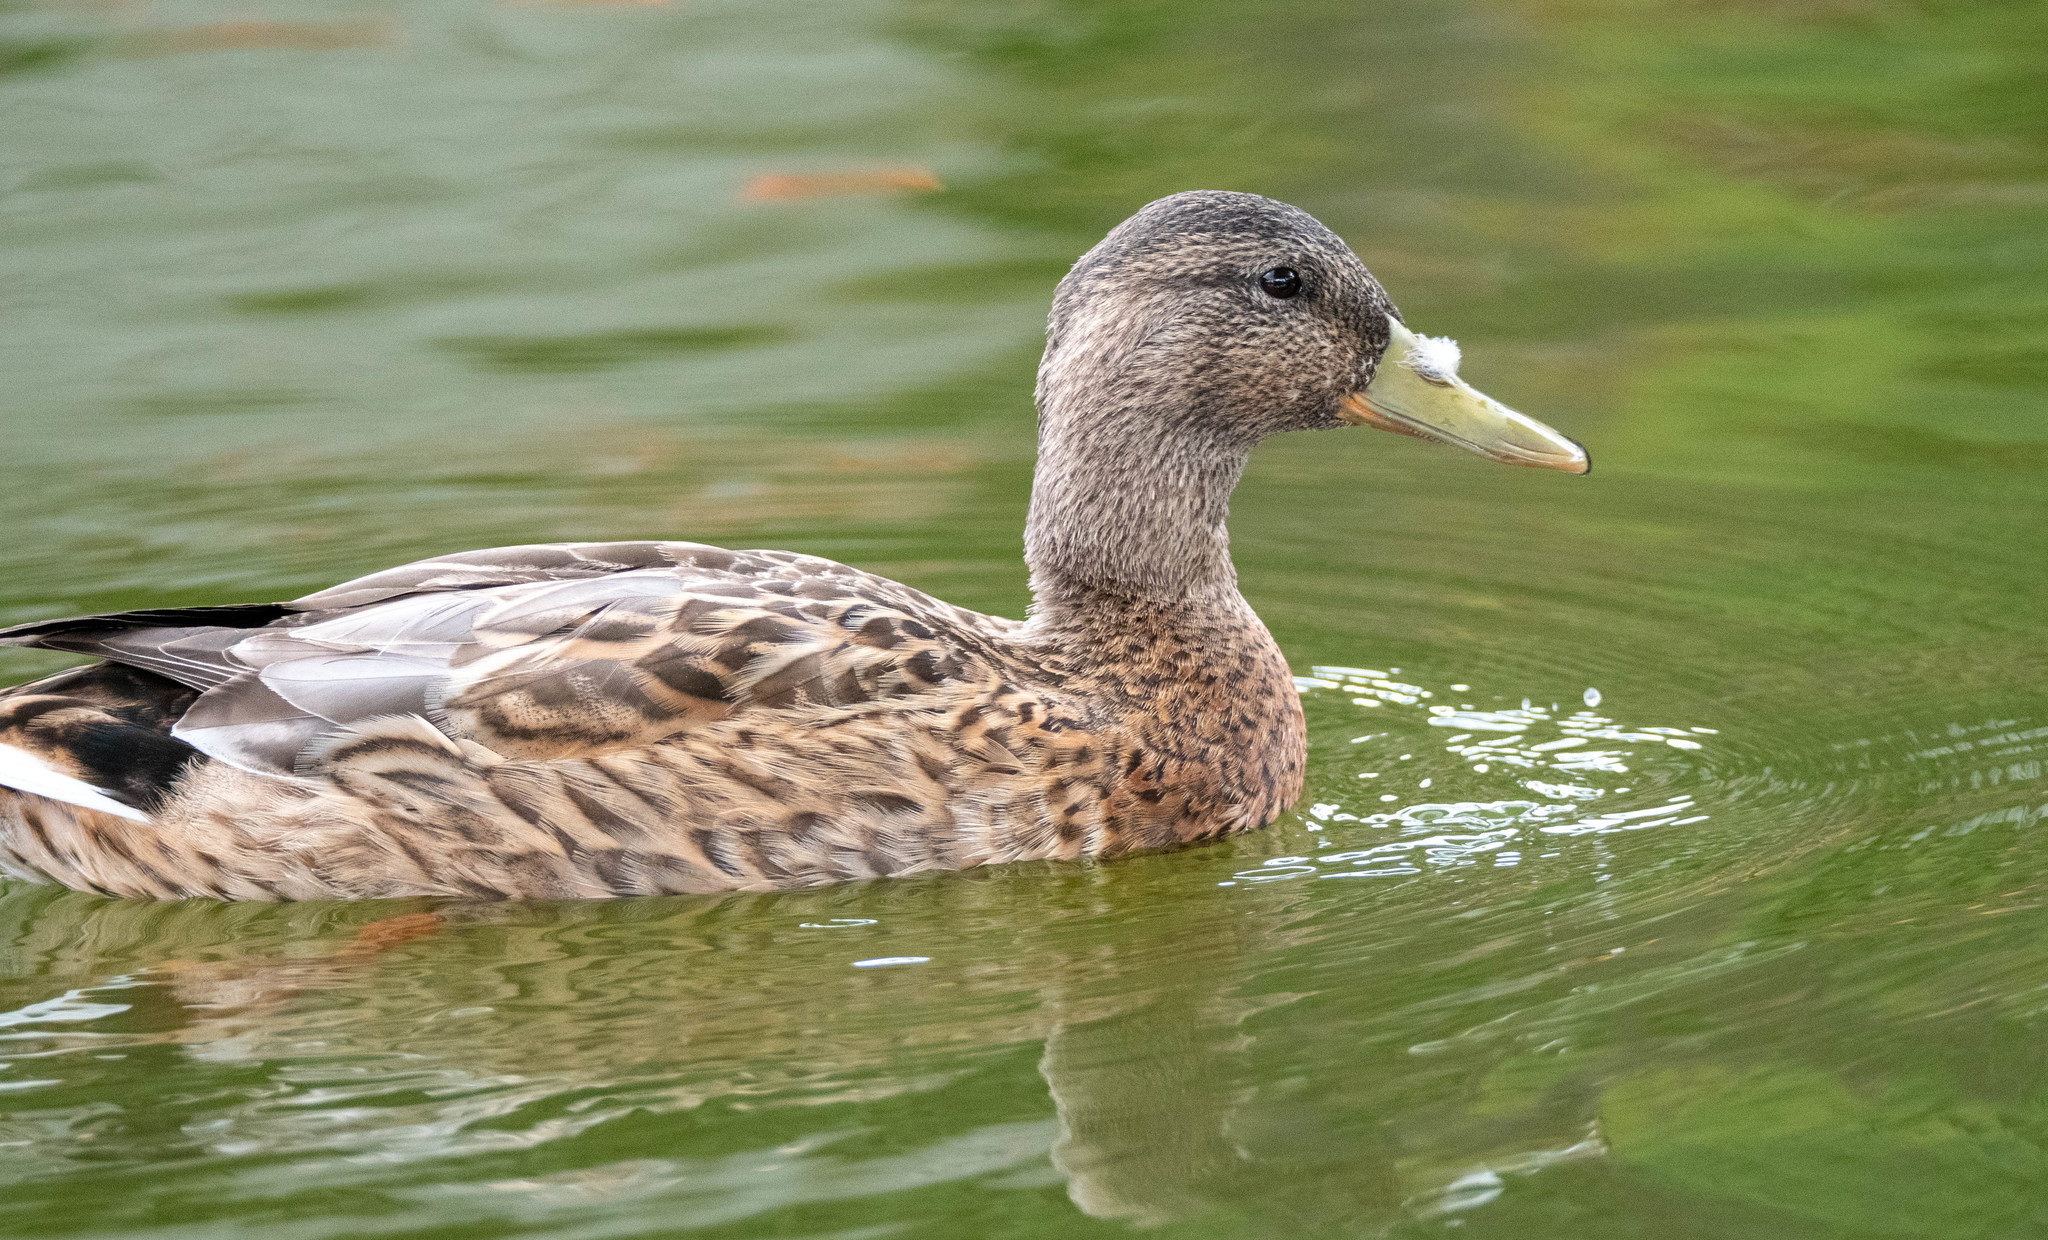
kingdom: Animalia
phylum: Chordata
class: Aves
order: Anseriformes
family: Anatidae
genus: Anas
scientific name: Anas
